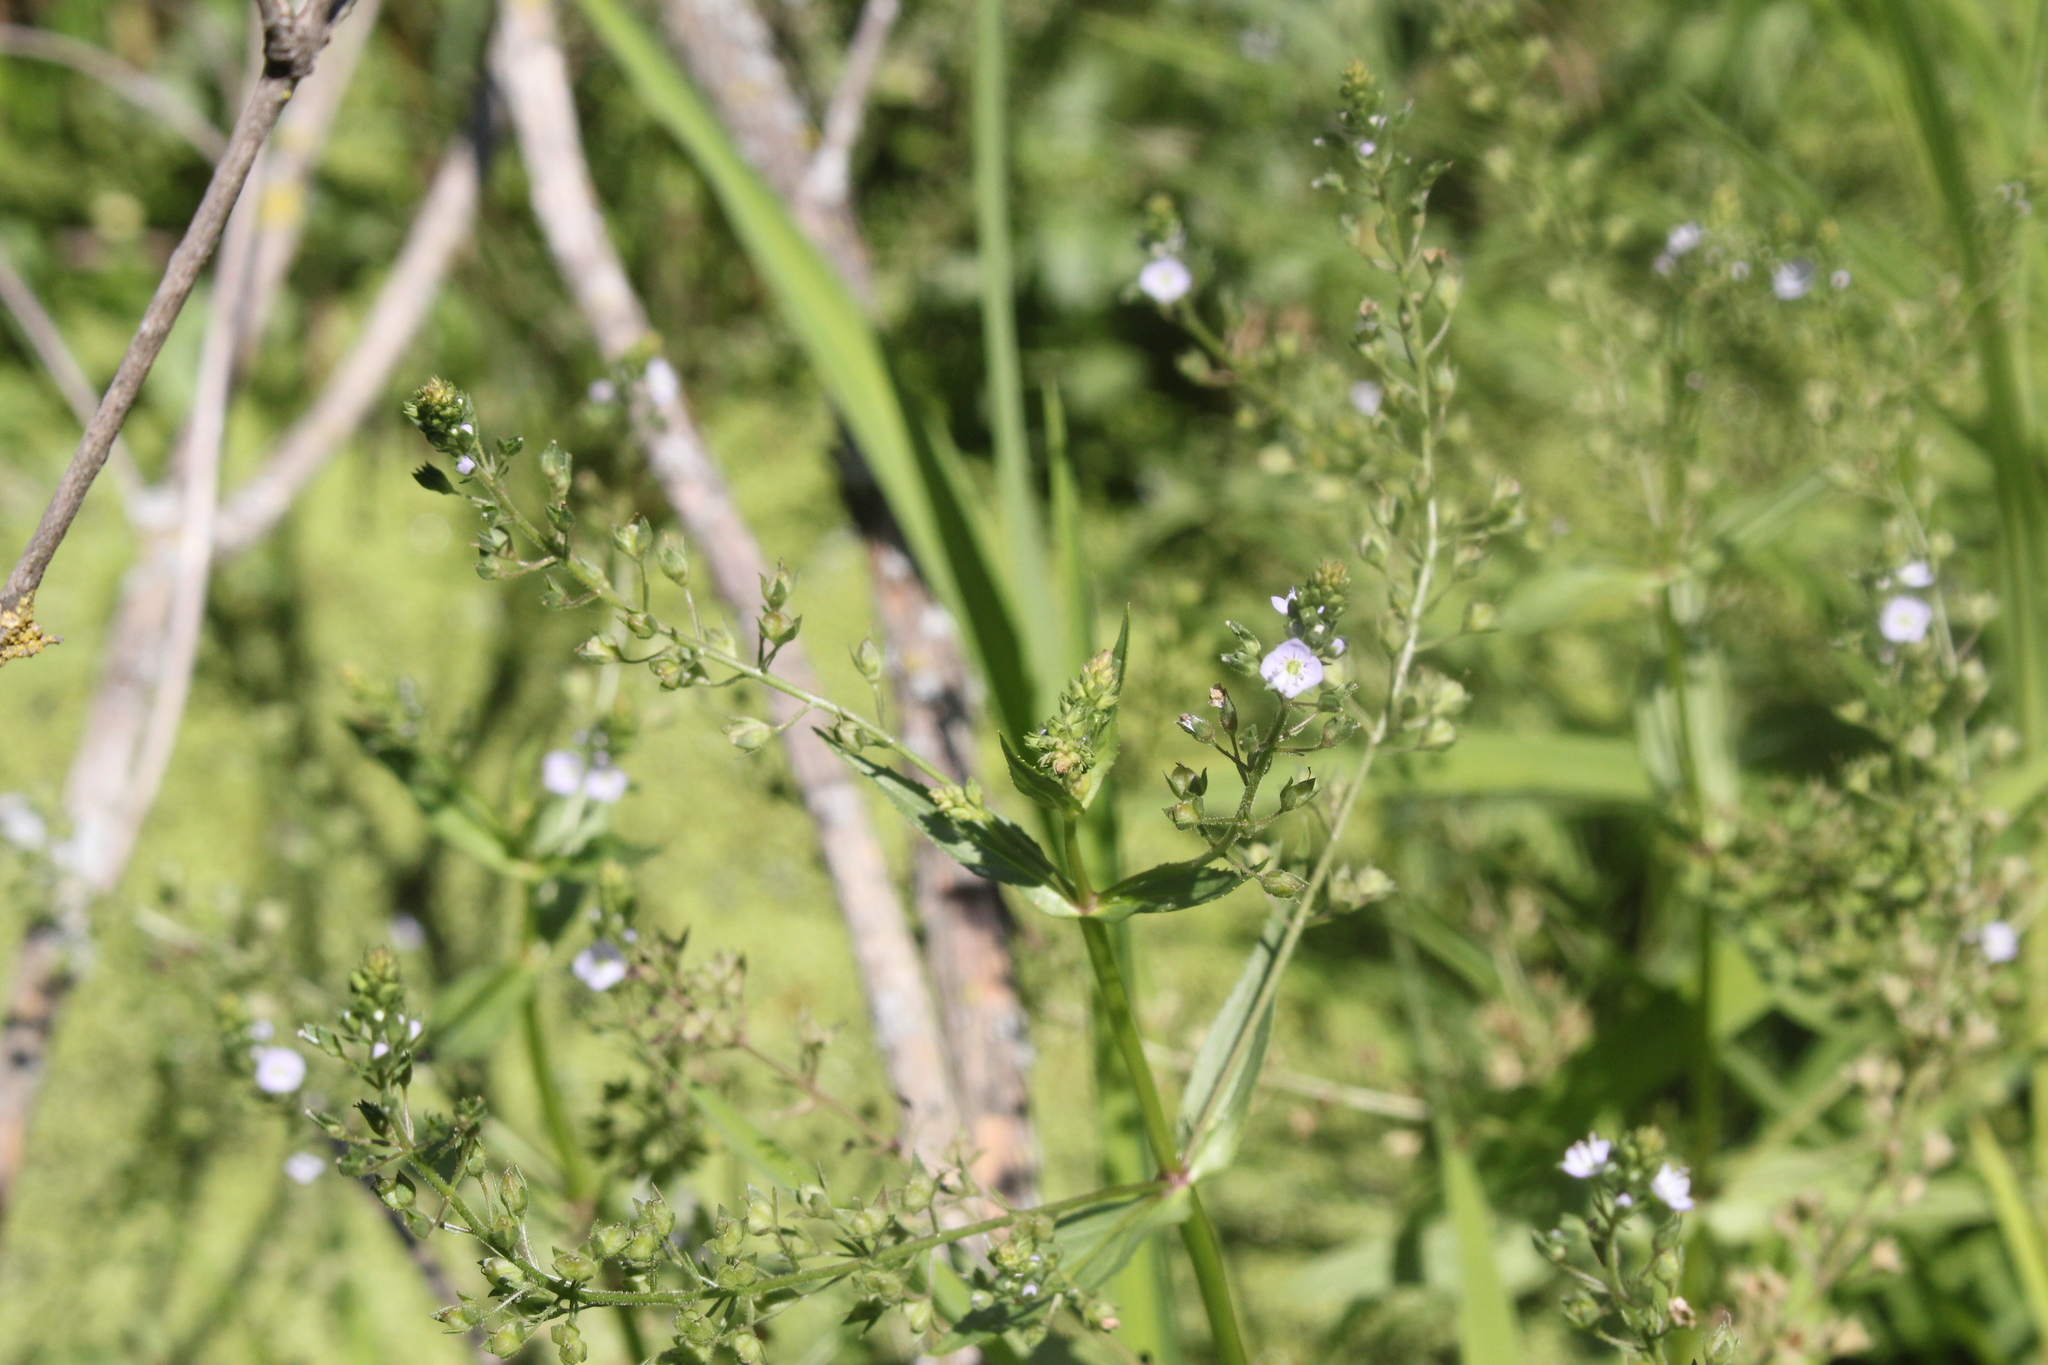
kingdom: Plantae
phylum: Tracheophyta
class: Magnoliopsida
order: Lamiales
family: Plantaginaceae
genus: Veronica
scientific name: Veronica anagallis-aquatica
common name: Water speedwell
